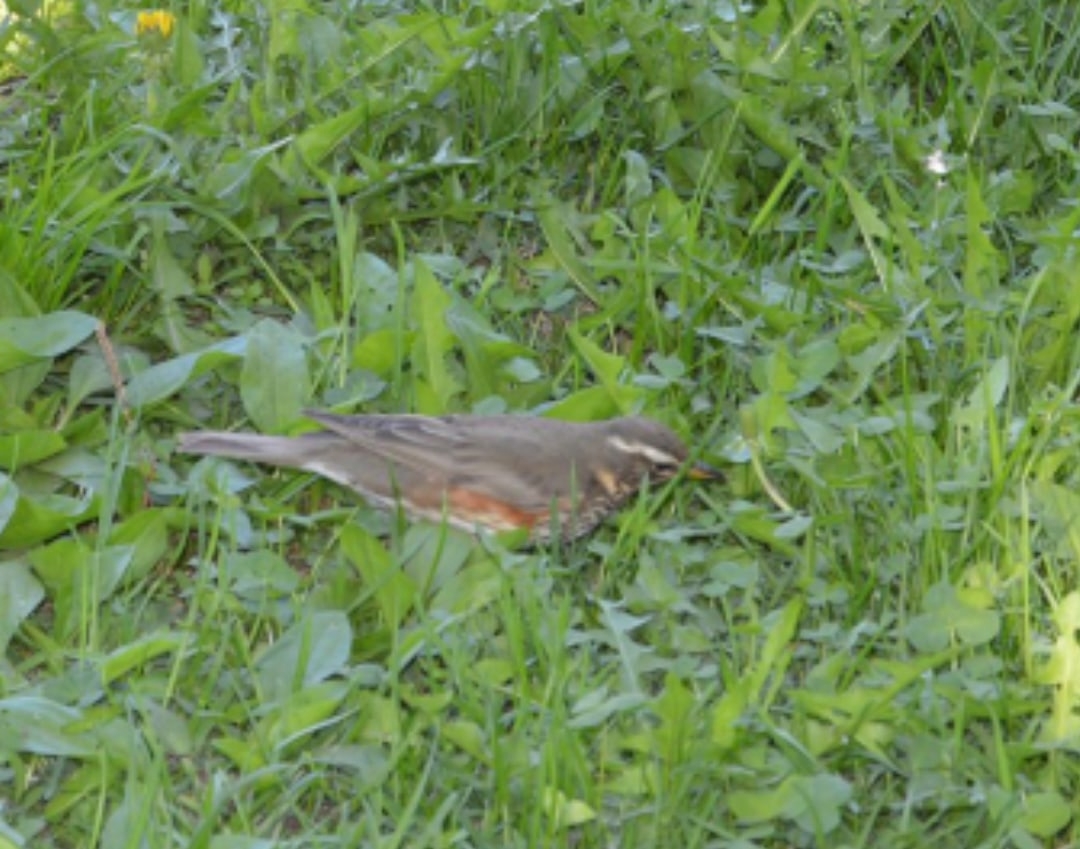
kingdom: Animalia
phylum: Chordata
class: Aves
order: Passeriformes
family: Turdidae
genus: Turdus
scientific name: Turdus iliacus
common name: Redwing
